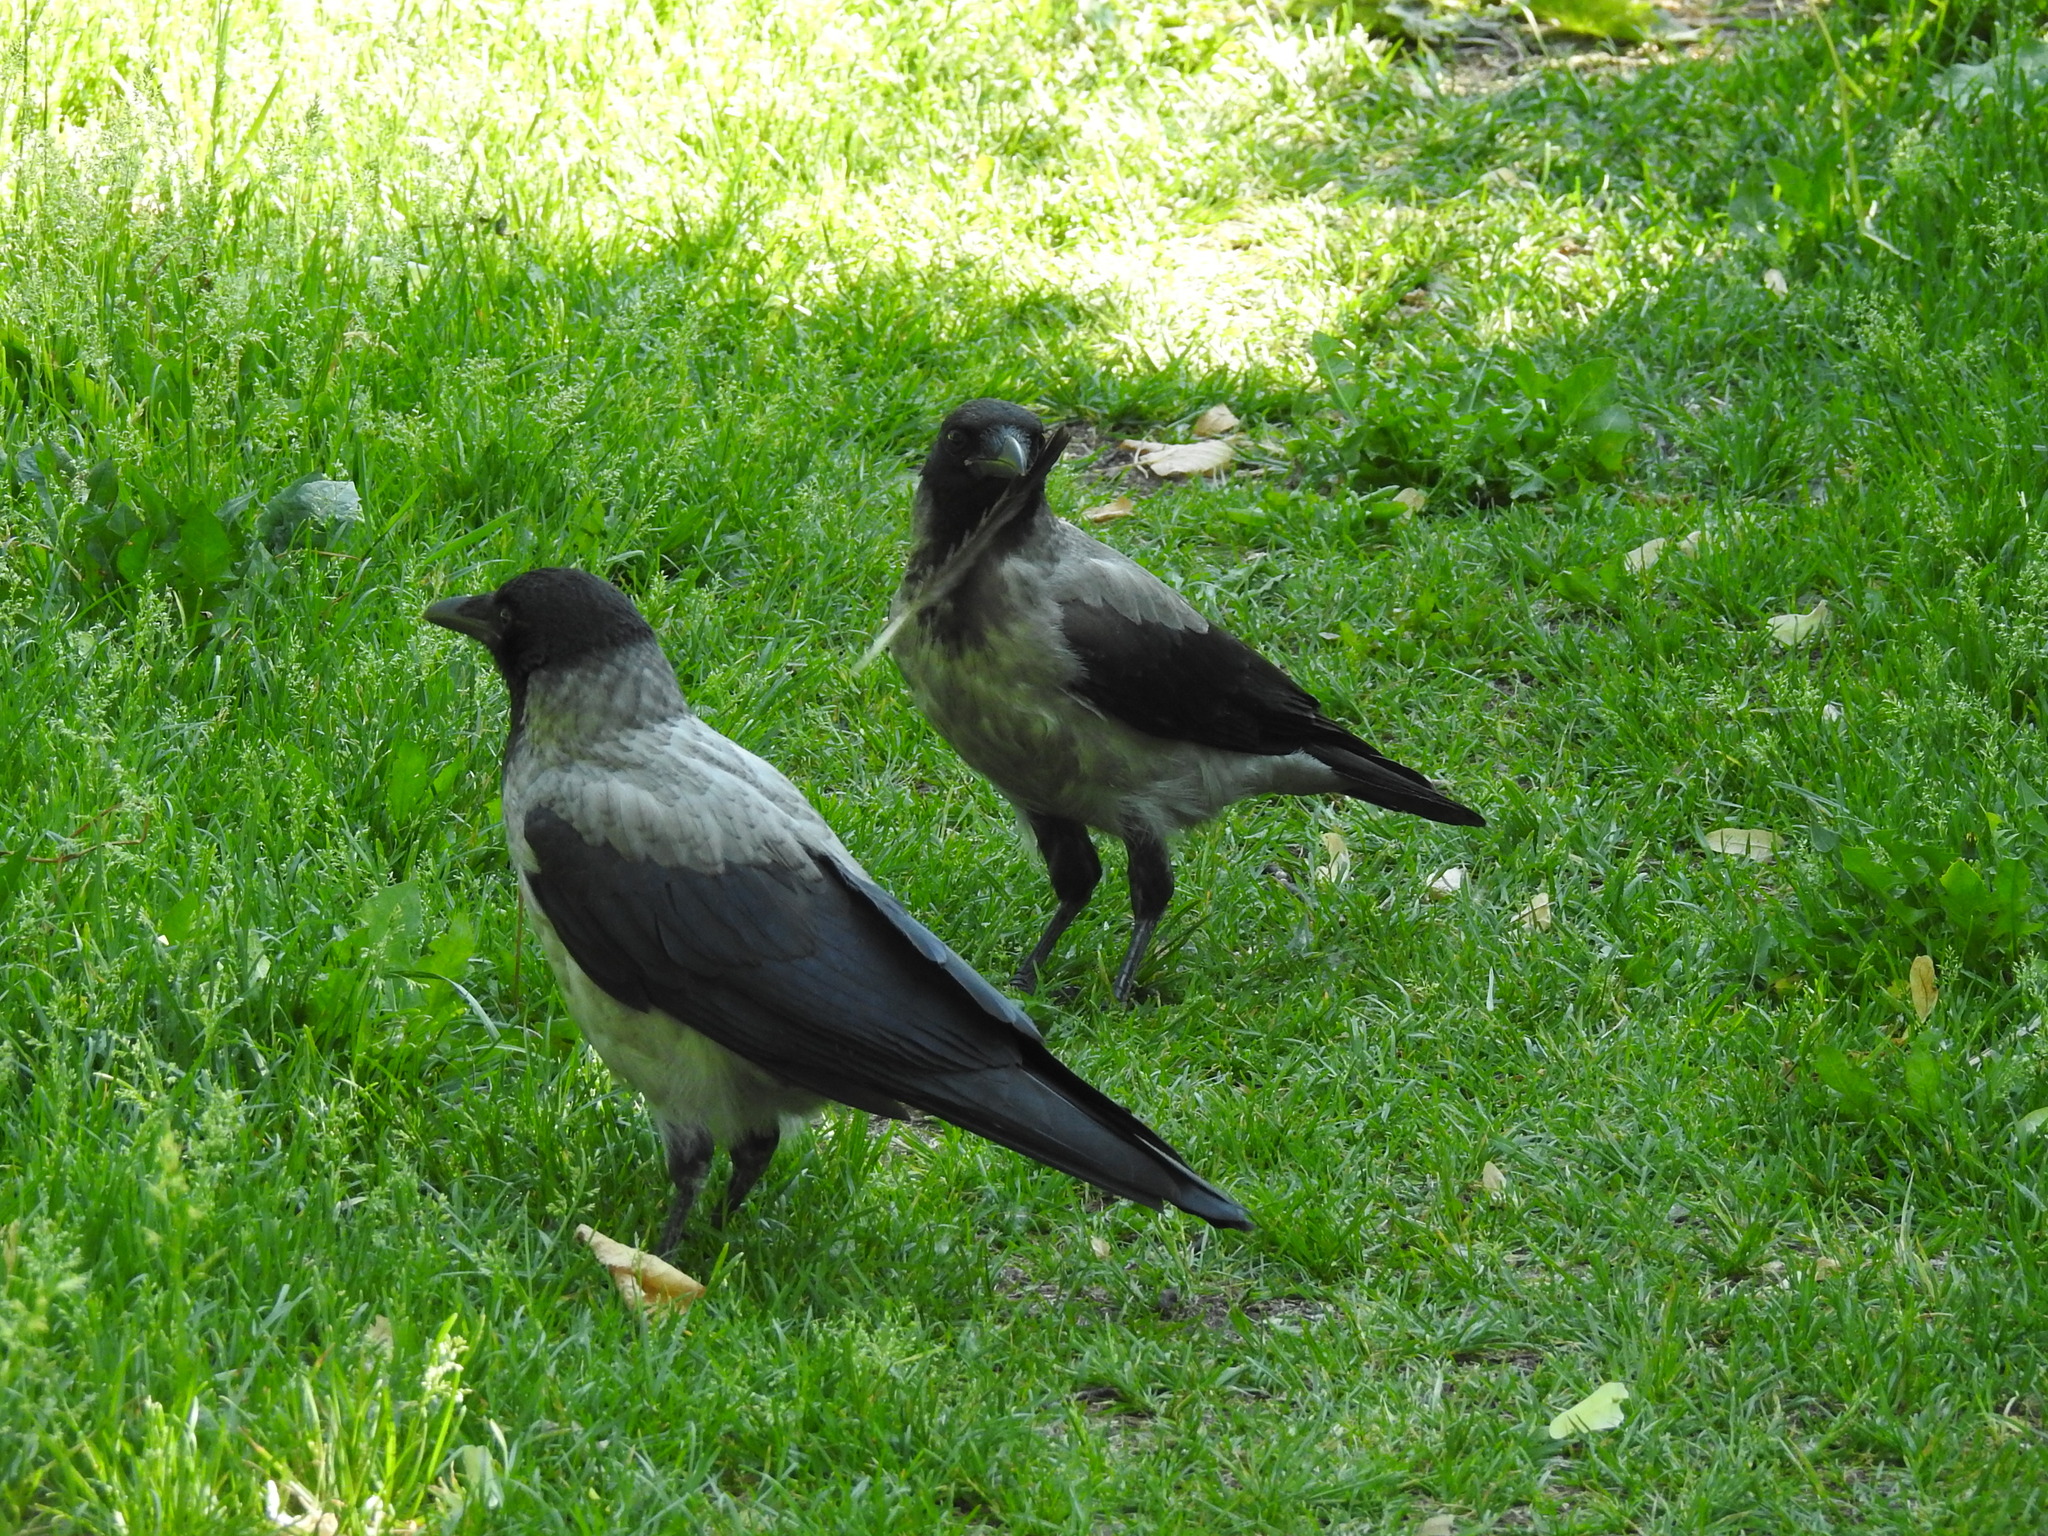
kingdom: Animalia
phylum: Chordata
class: Aves
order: Passeriformes
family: Corvidae
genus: Corvus
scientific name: Corvus cornix
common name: Hooded crow
